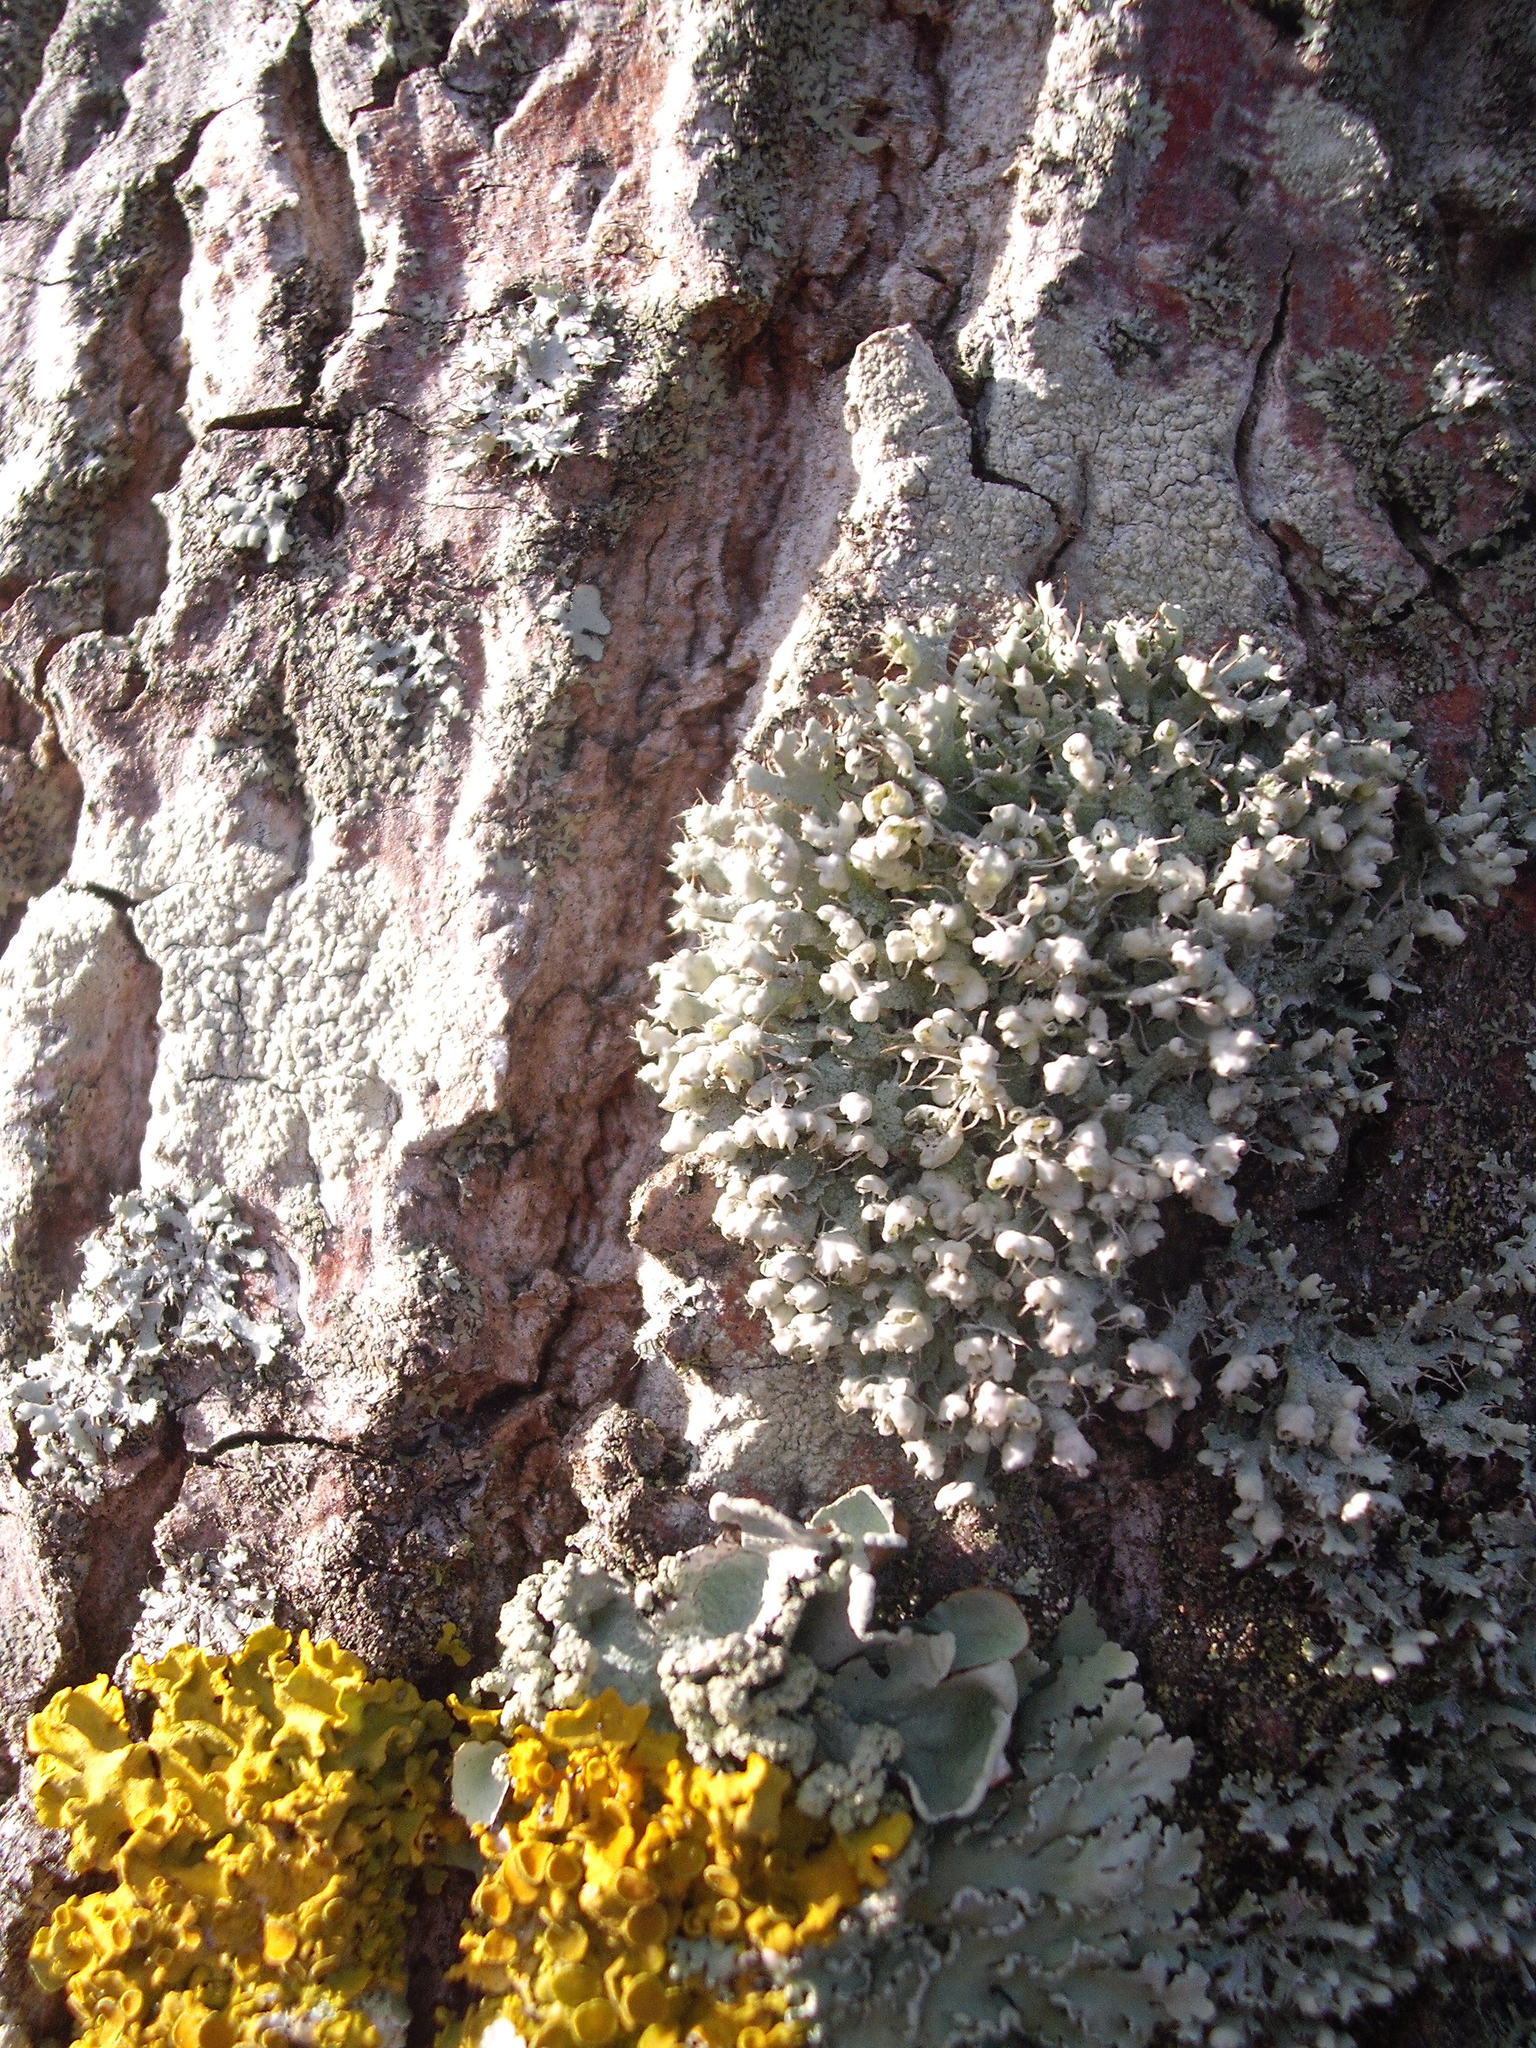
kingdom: Fungi
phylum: Ascomycota
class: Lecanoromycetes
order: Caliciales
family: Physciaceae
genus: Physcia
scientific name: Physcia adscendens
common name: Hooded rosette lichen
